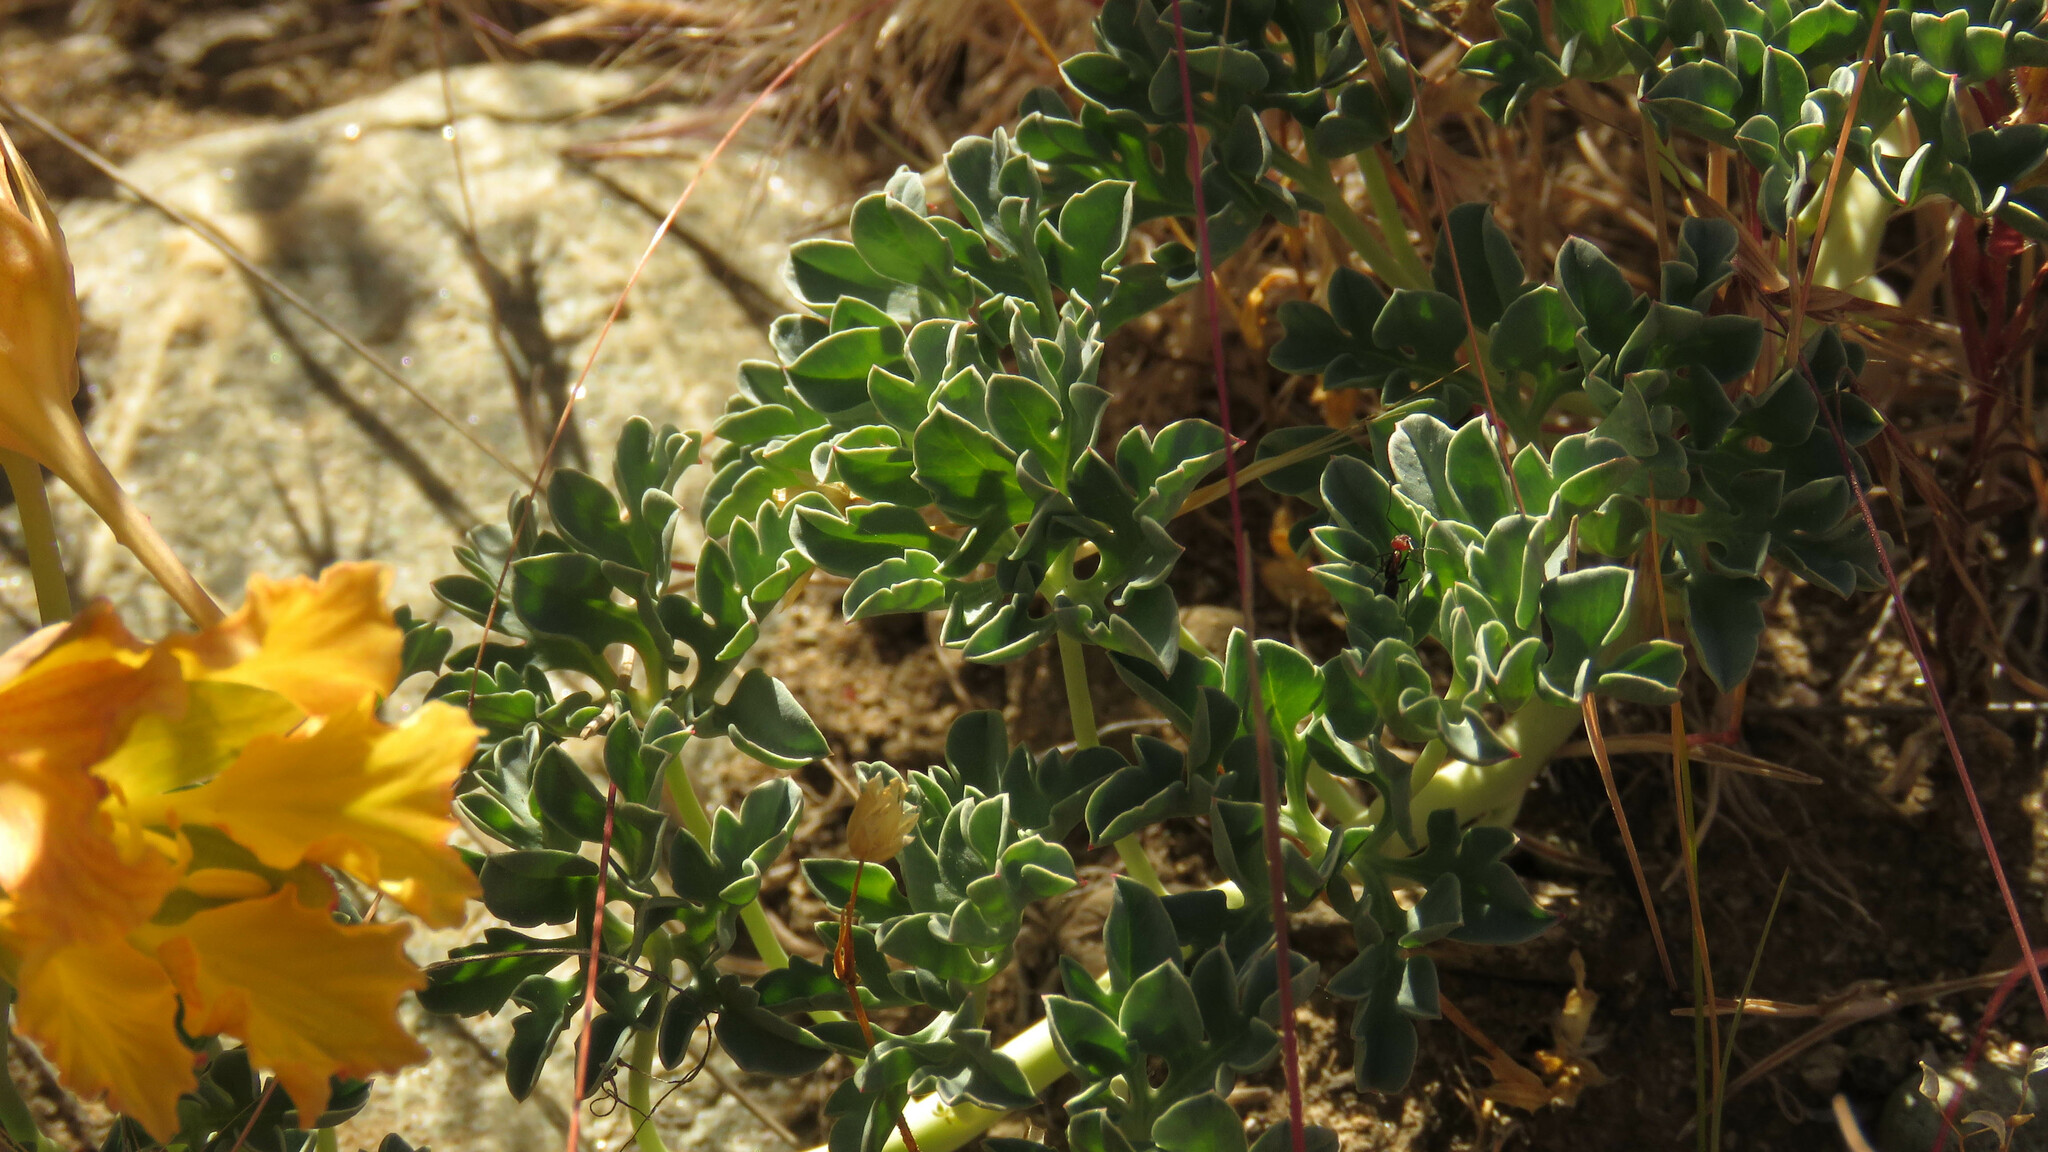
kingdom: Plantae
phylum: Tracheophyta
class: Magnoliopsida
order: Brassicales
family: Tropaeolaceae
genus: Tropaeolum
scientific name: Tropaeolum incisum
